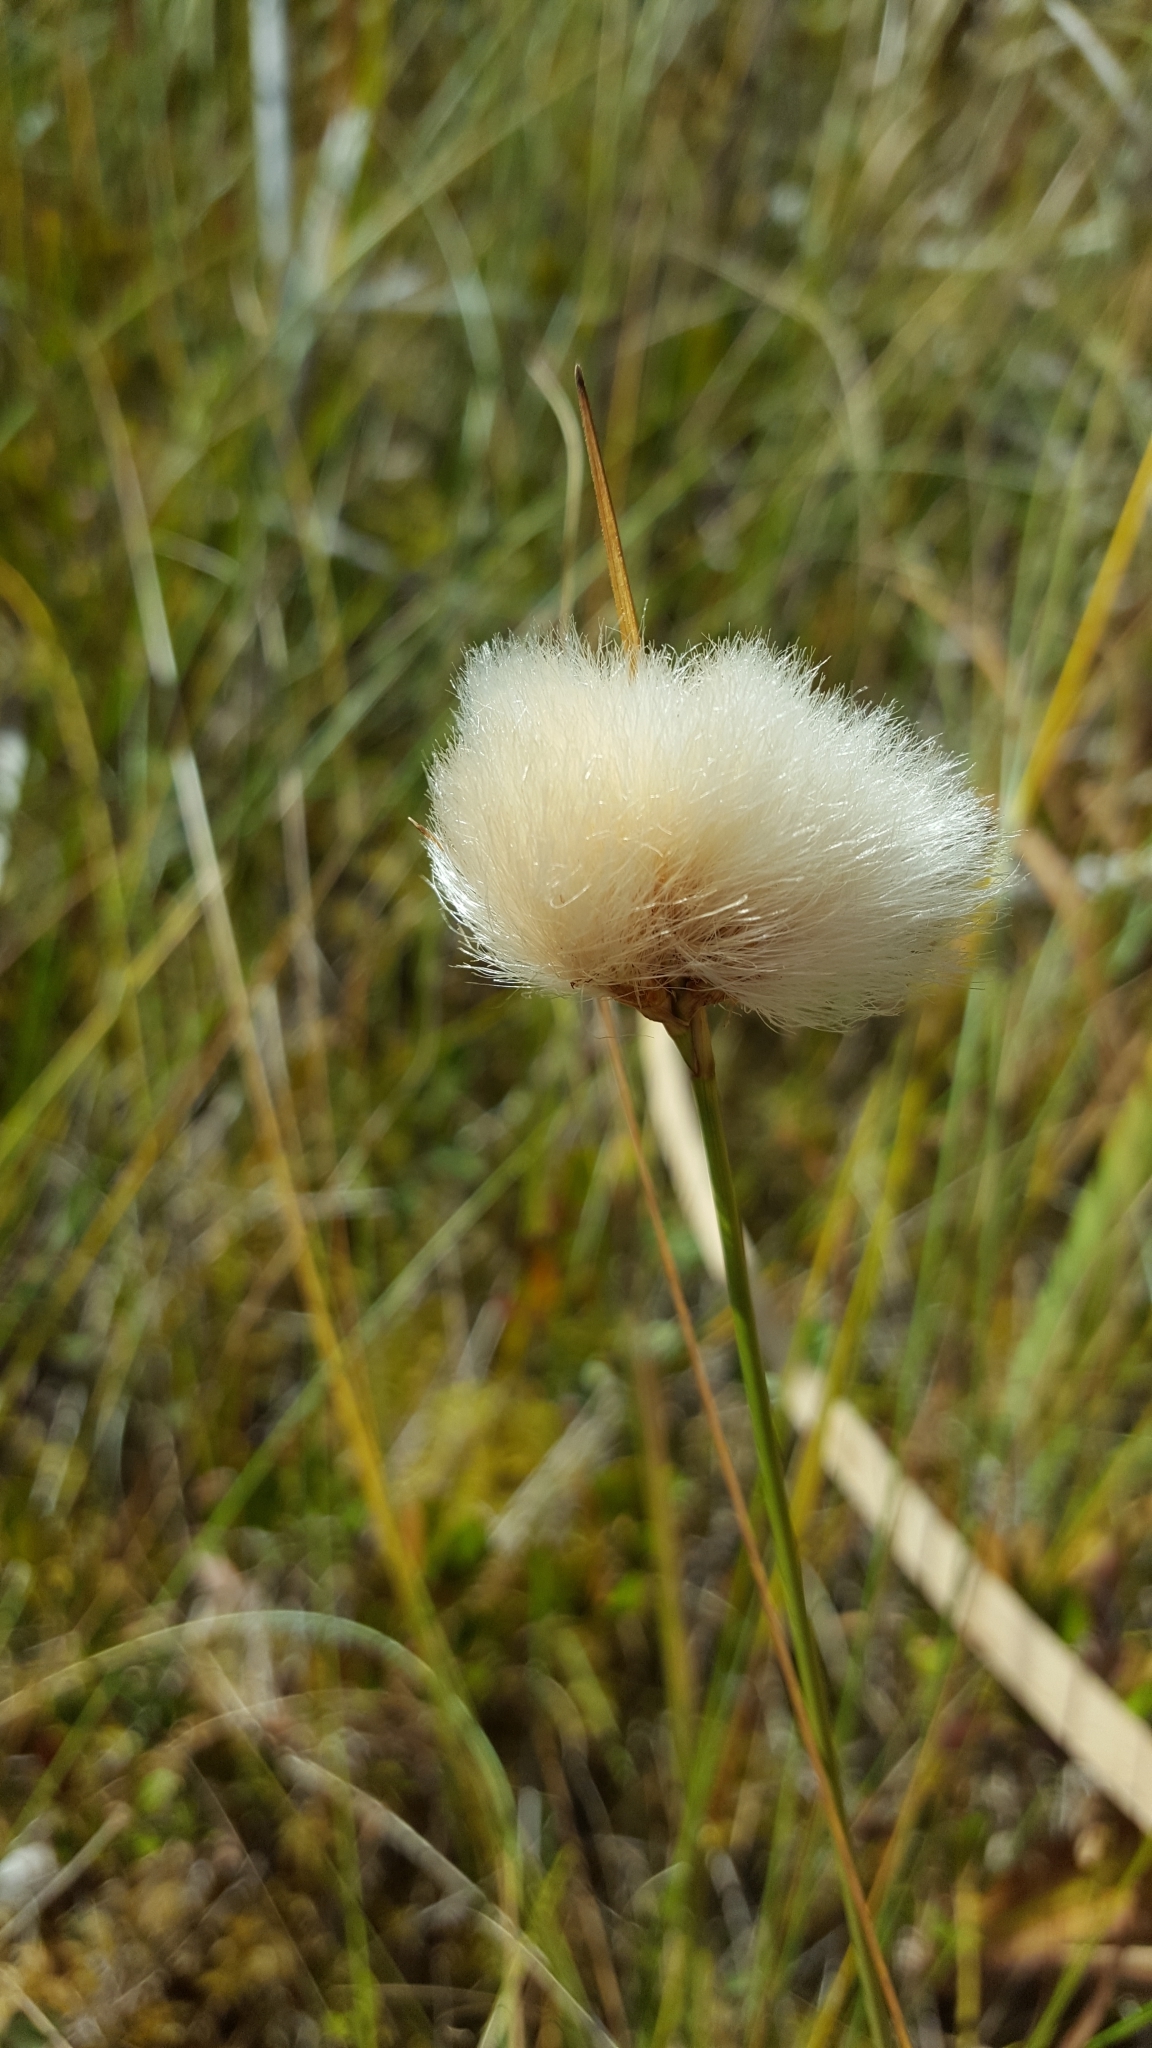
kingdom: Plantae
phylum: Tracheophyta
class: Liliopsida
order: Poales
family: Cyperaceae
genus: Eriophorum
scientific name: Eriophorum virginicum
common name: Tawny cottongrass
